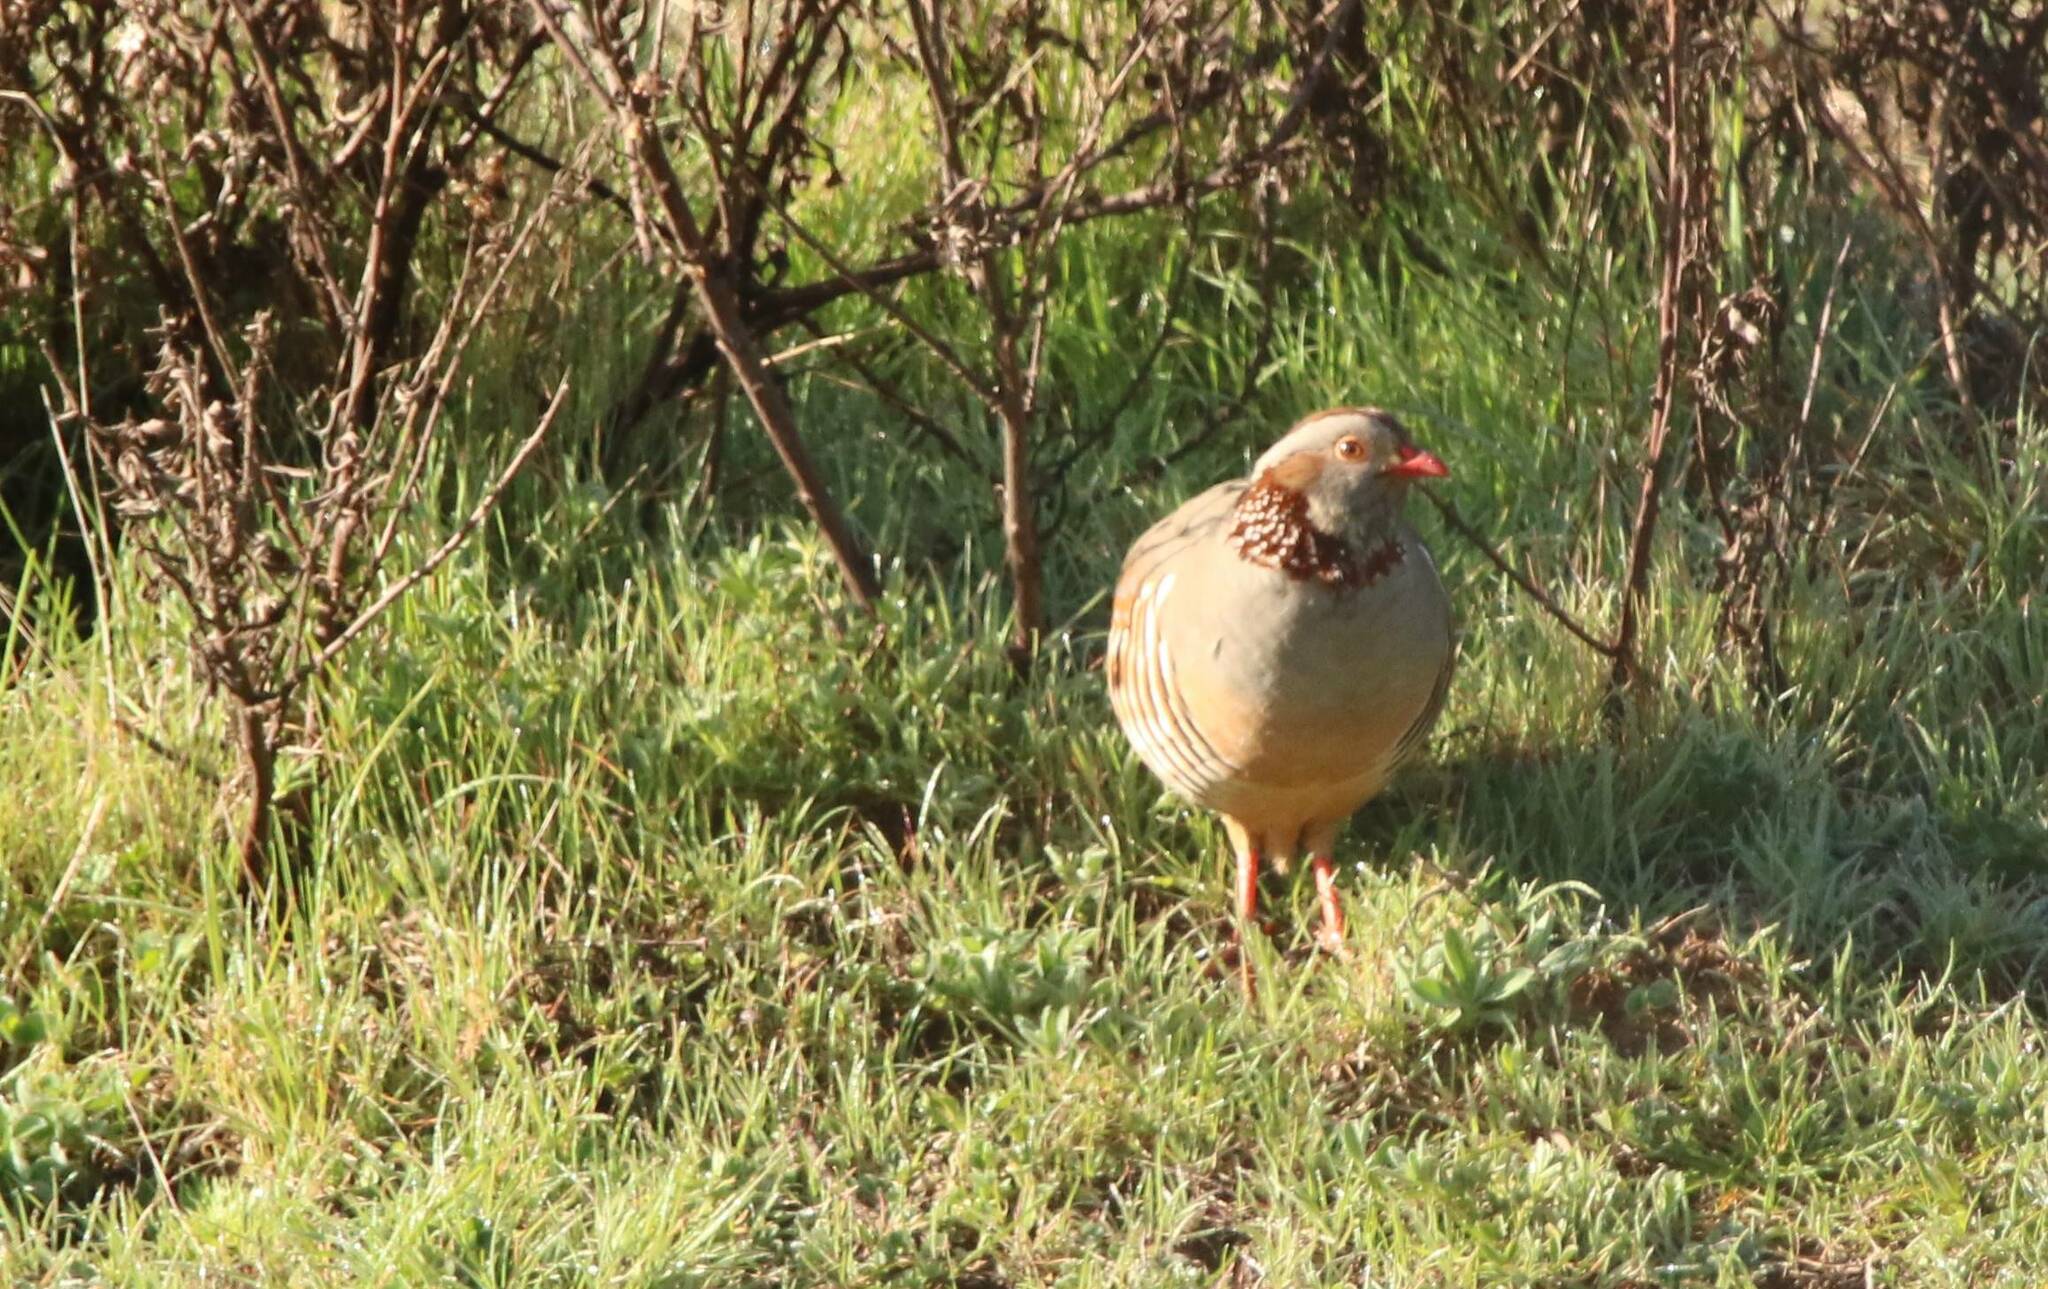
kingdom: Animalia
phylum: Chordata
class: Aves
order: Galliformes
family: Phasianidae
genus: Alectoris
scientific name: Alectoris barbara
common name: Barbary partridge
